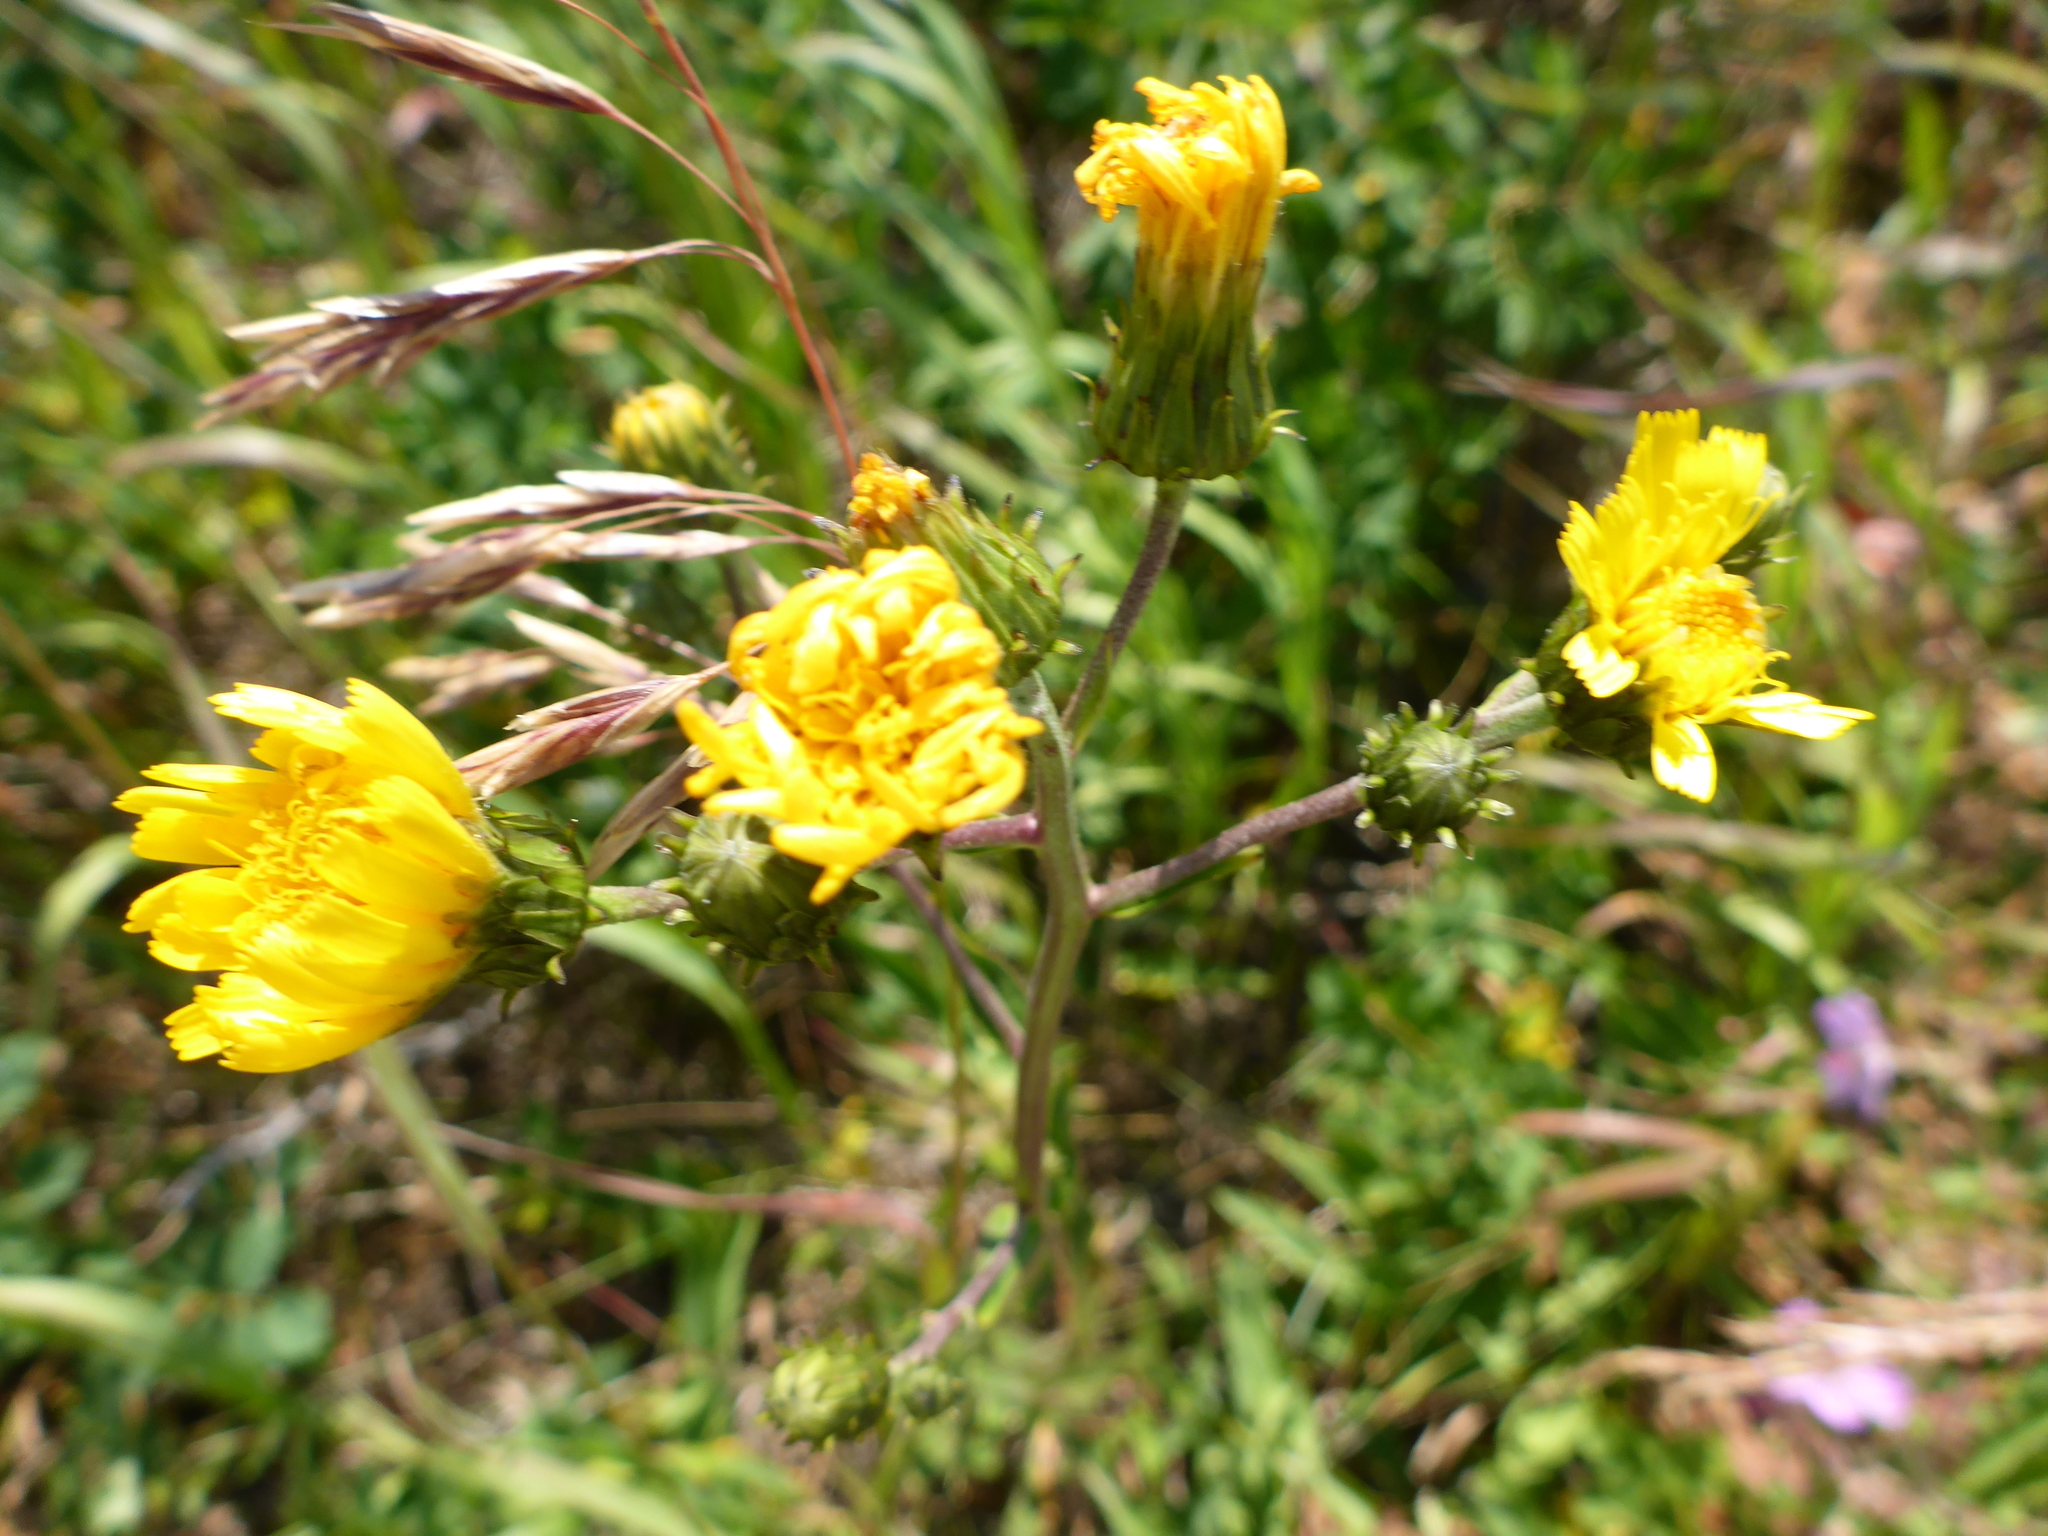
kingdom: Plantae
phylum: Tracheophyta
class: Magnoliopsida
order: Asterales
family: Asteraceae
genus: Hieracium
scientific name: Hieracium umbellatum
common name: Northern hawkweed
